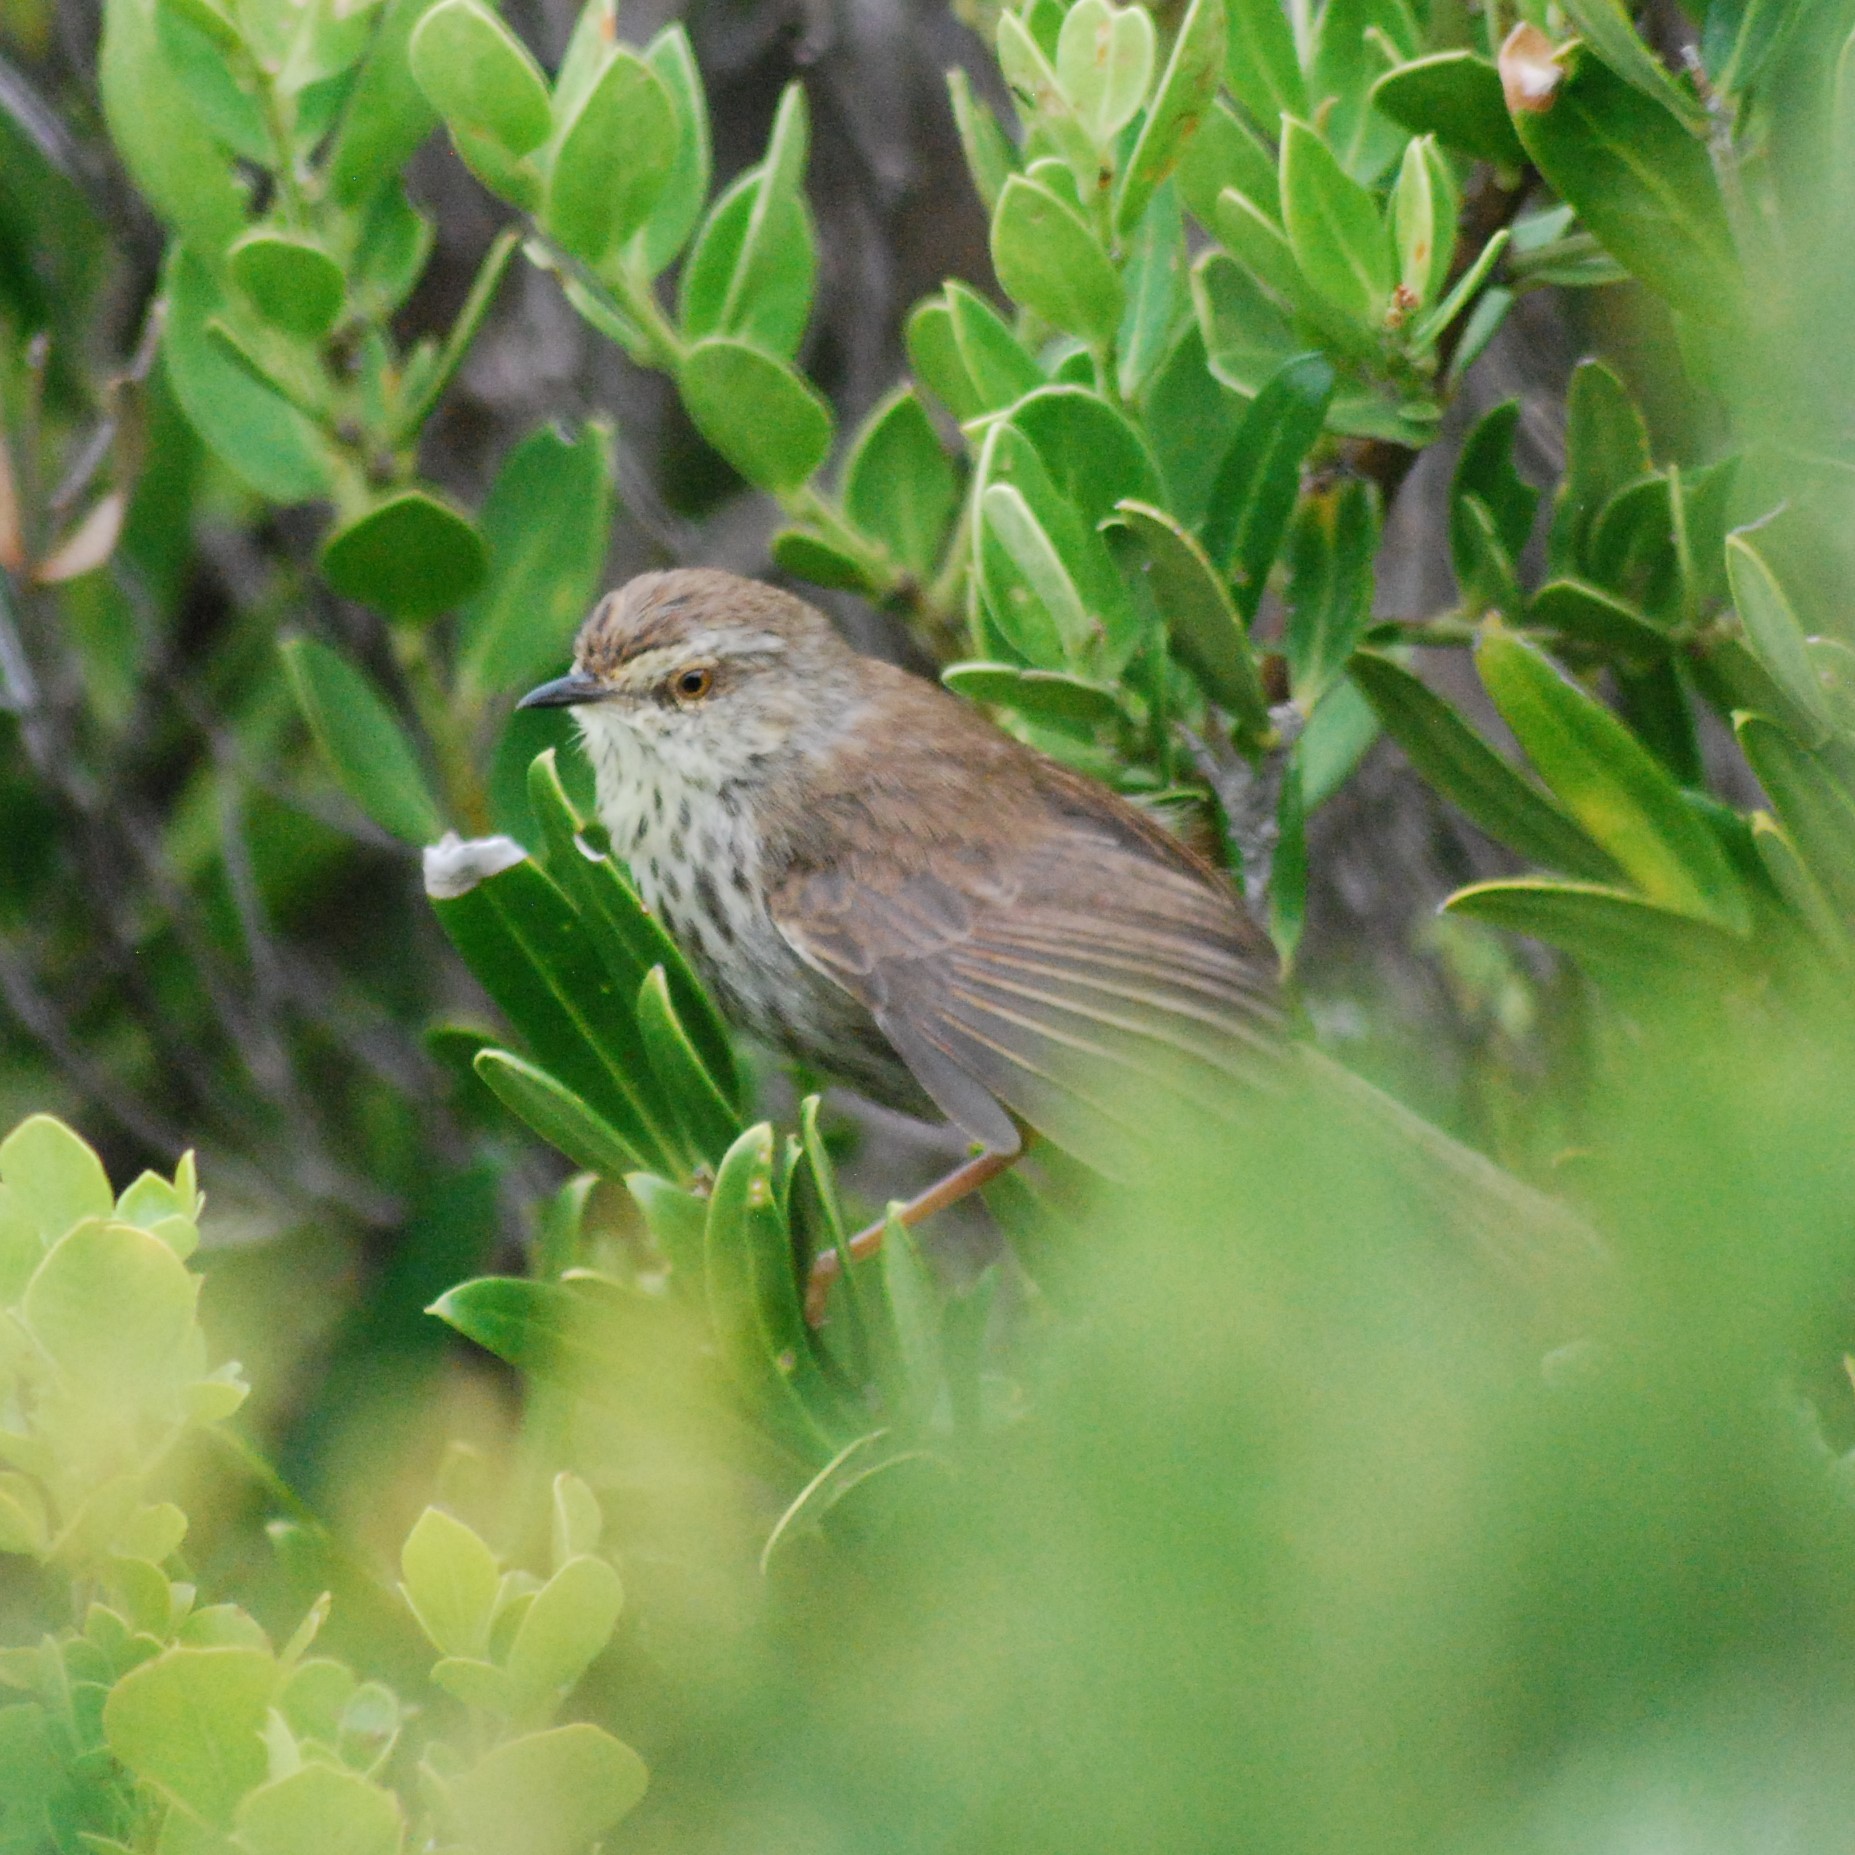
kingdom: Animalia
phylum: Chordata
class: Aves
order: Passeriformes
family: Cisticolidae
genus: Prinia
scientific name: Prinia maculosa
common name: Karoo prinia
